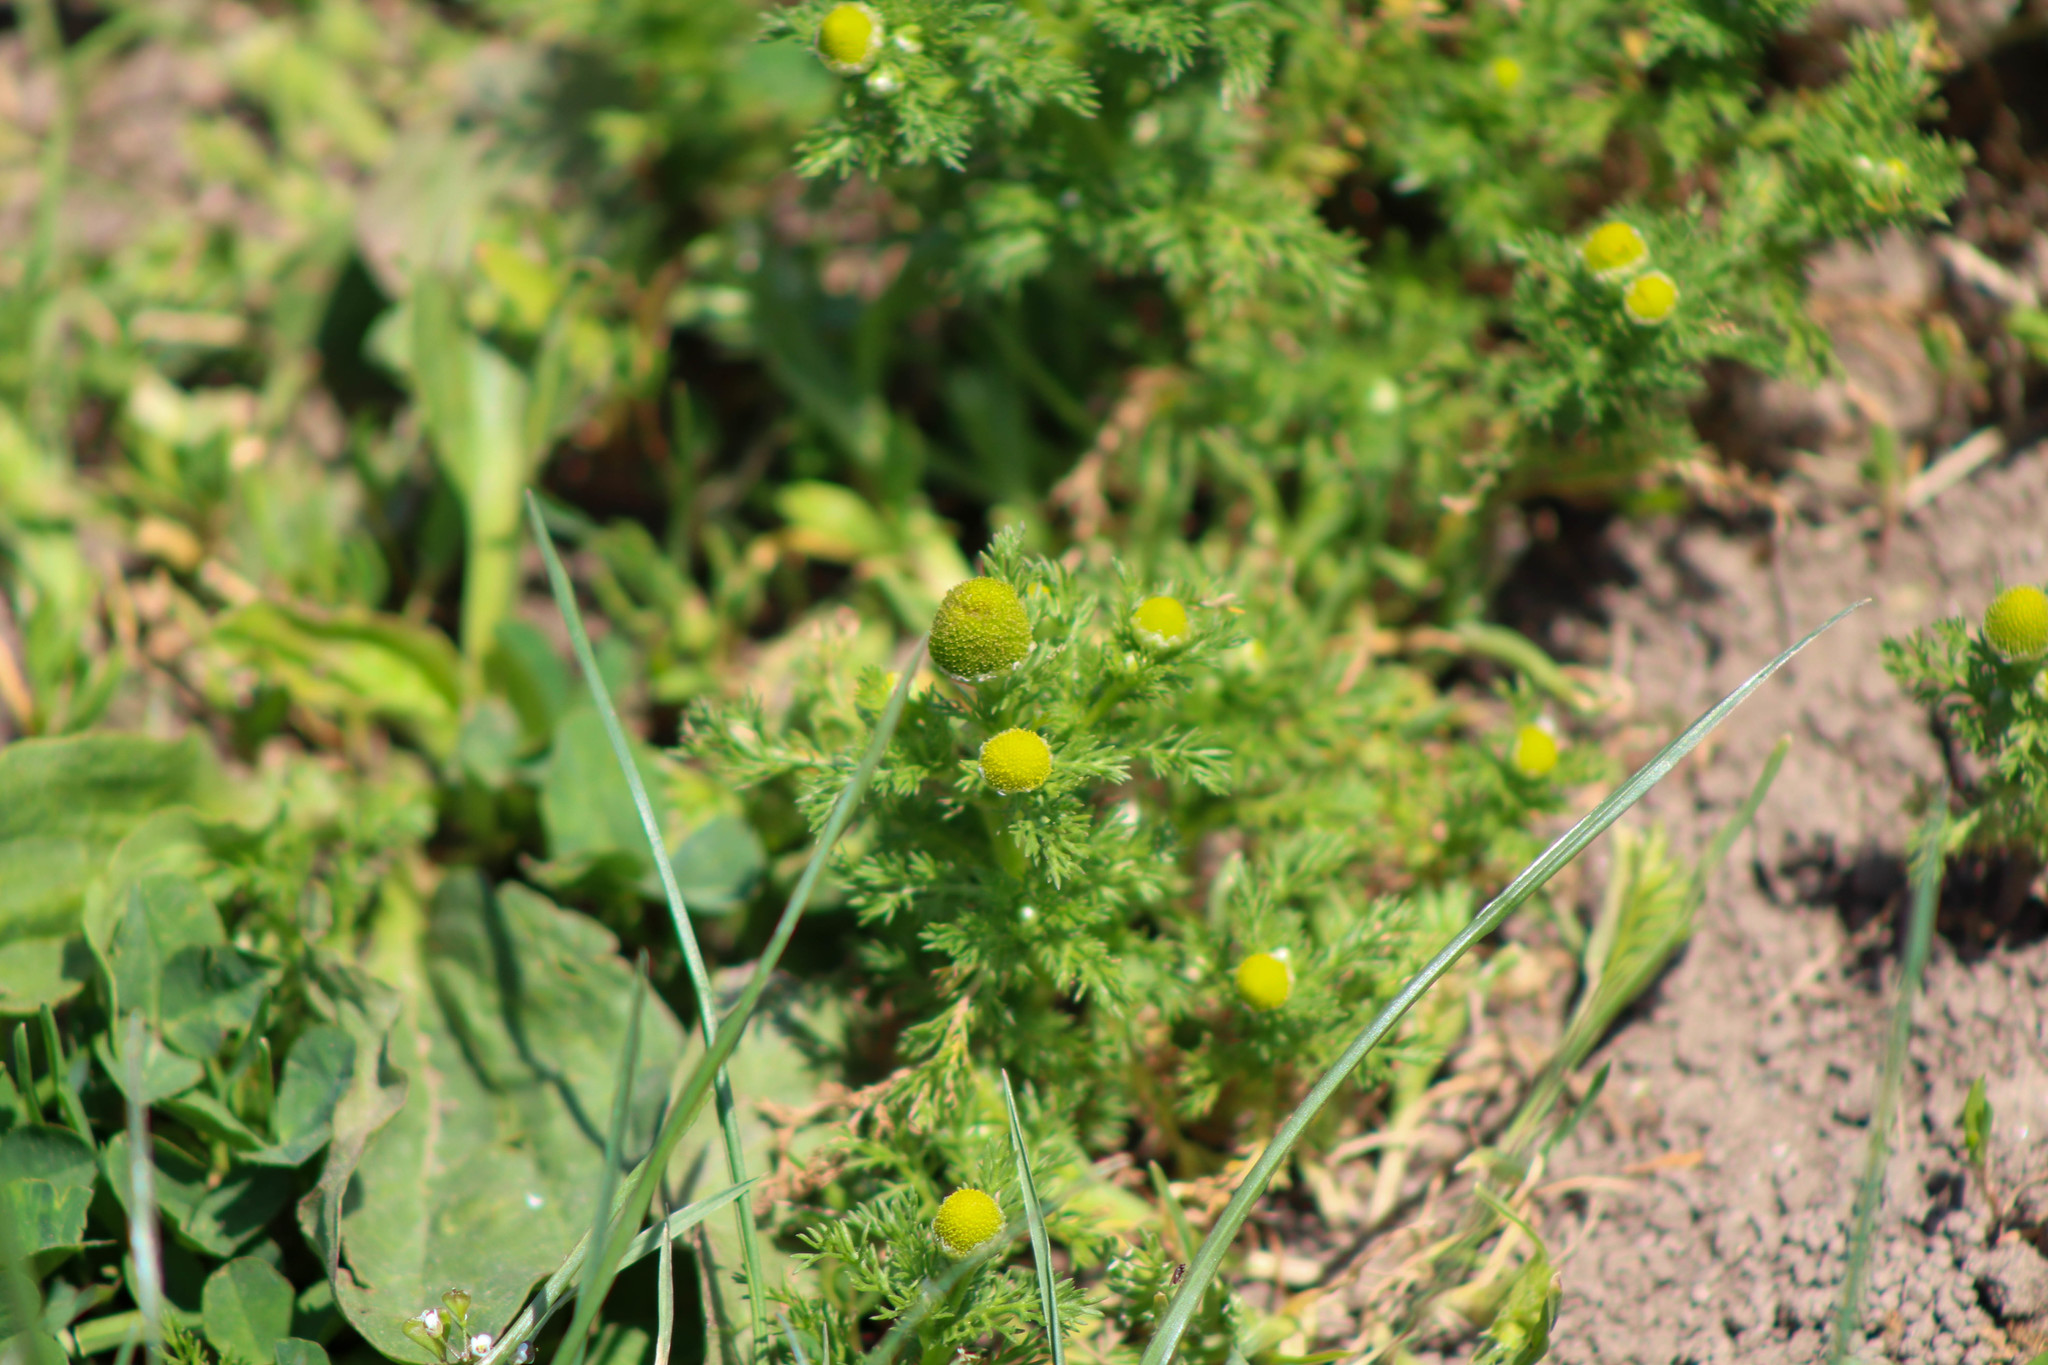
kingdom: Plantae
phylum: Tracheophyta
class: Magnoliopsida
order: Asterales
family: Asteraceae
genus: Matricaria
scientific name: Matricaria discoidea
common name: Disc mayweed
